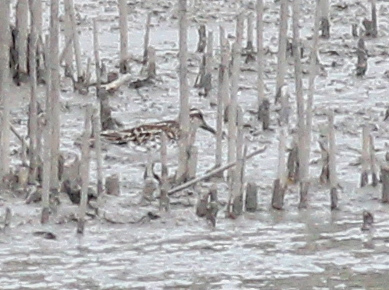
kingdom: Animalia
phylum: Chordata
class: Aves
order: Charadriiformes
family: Scolopacidae
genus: Calidris
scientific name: Calidris falcinellus
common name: Broad-billed sandpiper
